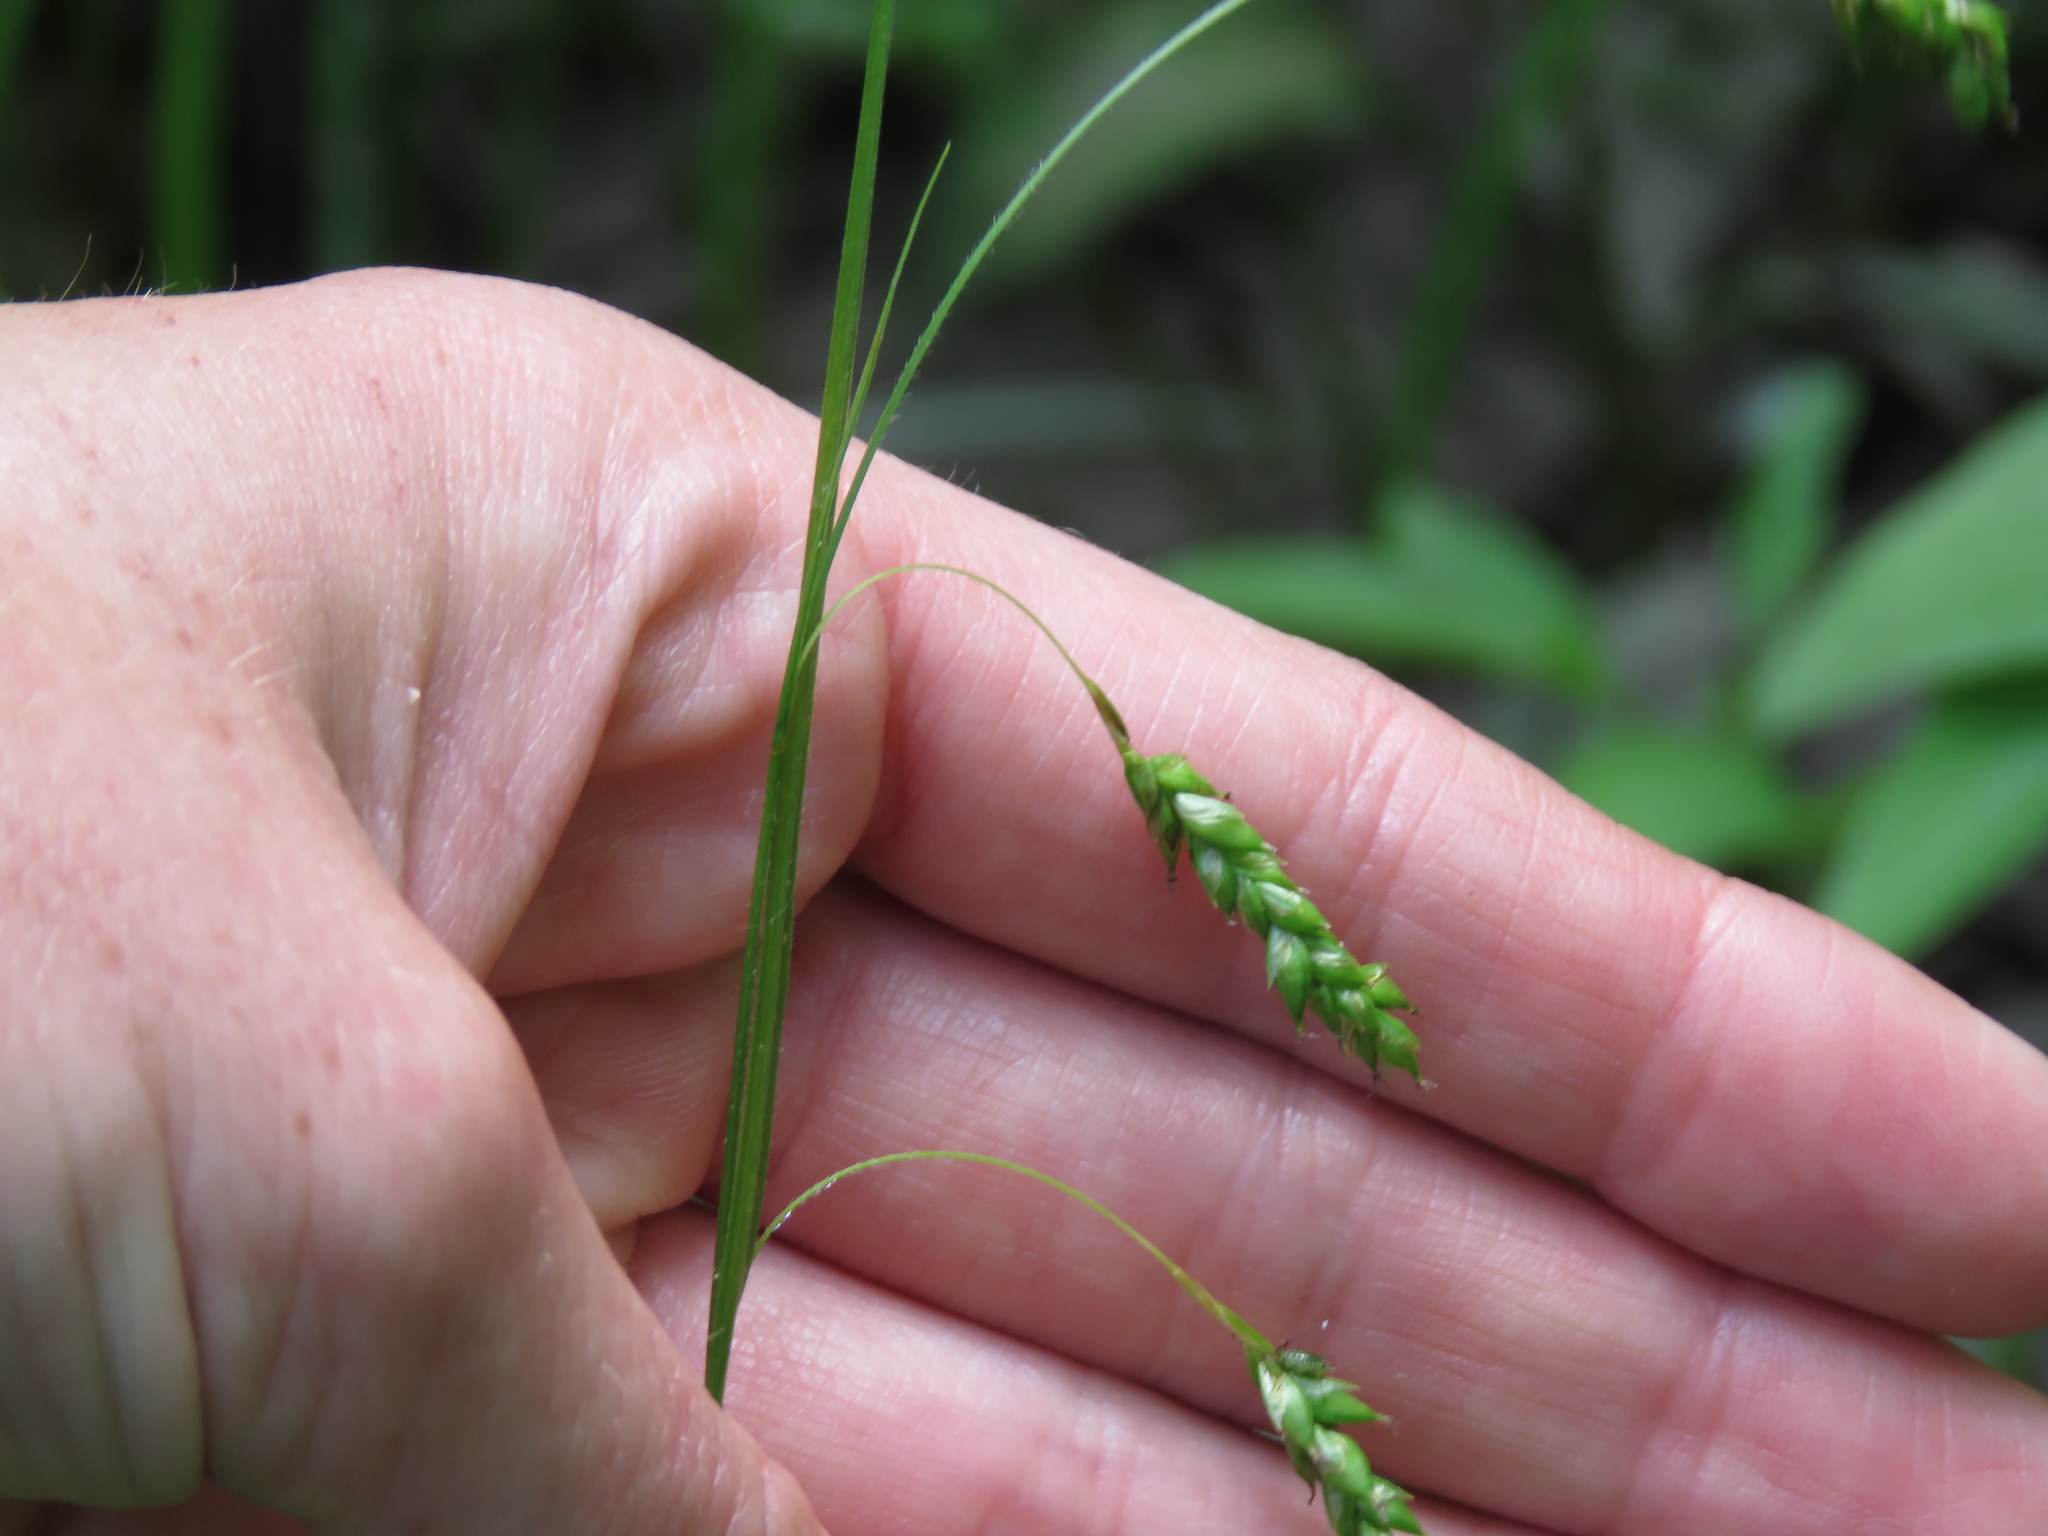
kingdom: Plantae
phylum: Tracheophyta
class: Liliopsida
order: Poales
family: Cyperaceae
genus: Carex
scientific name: Carex formosa
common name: Awnless graceful sedge
